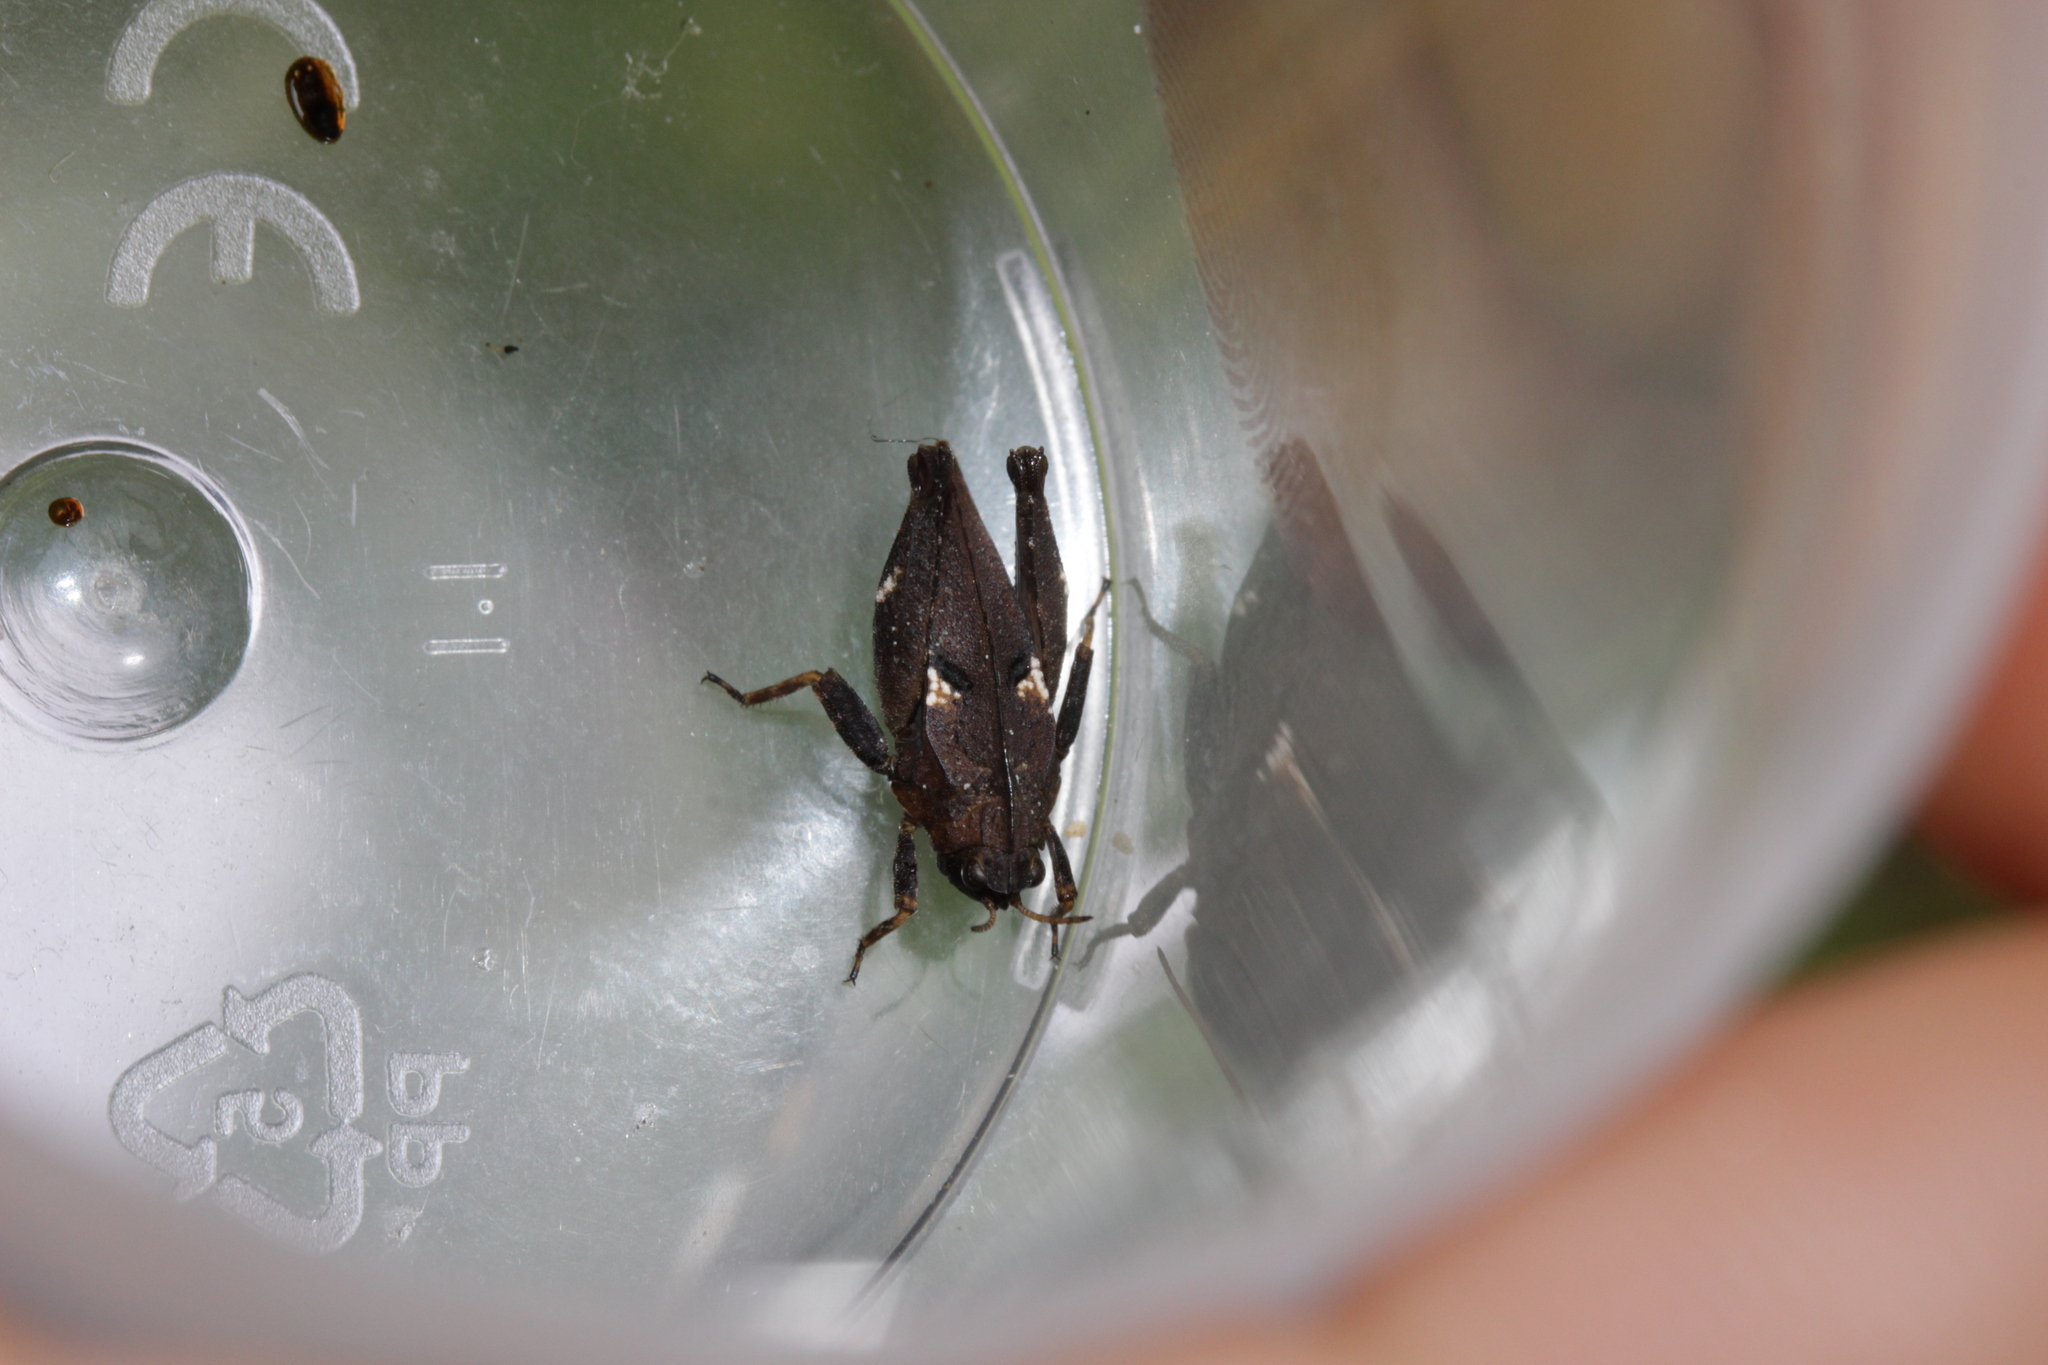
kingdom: Animalia
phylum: Arthropoda
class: Insecta
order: Orthoptera
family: Tetrigidae
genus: Tetrix
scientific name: Tetrix bipunctata
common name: Two-spotted groundhopper
